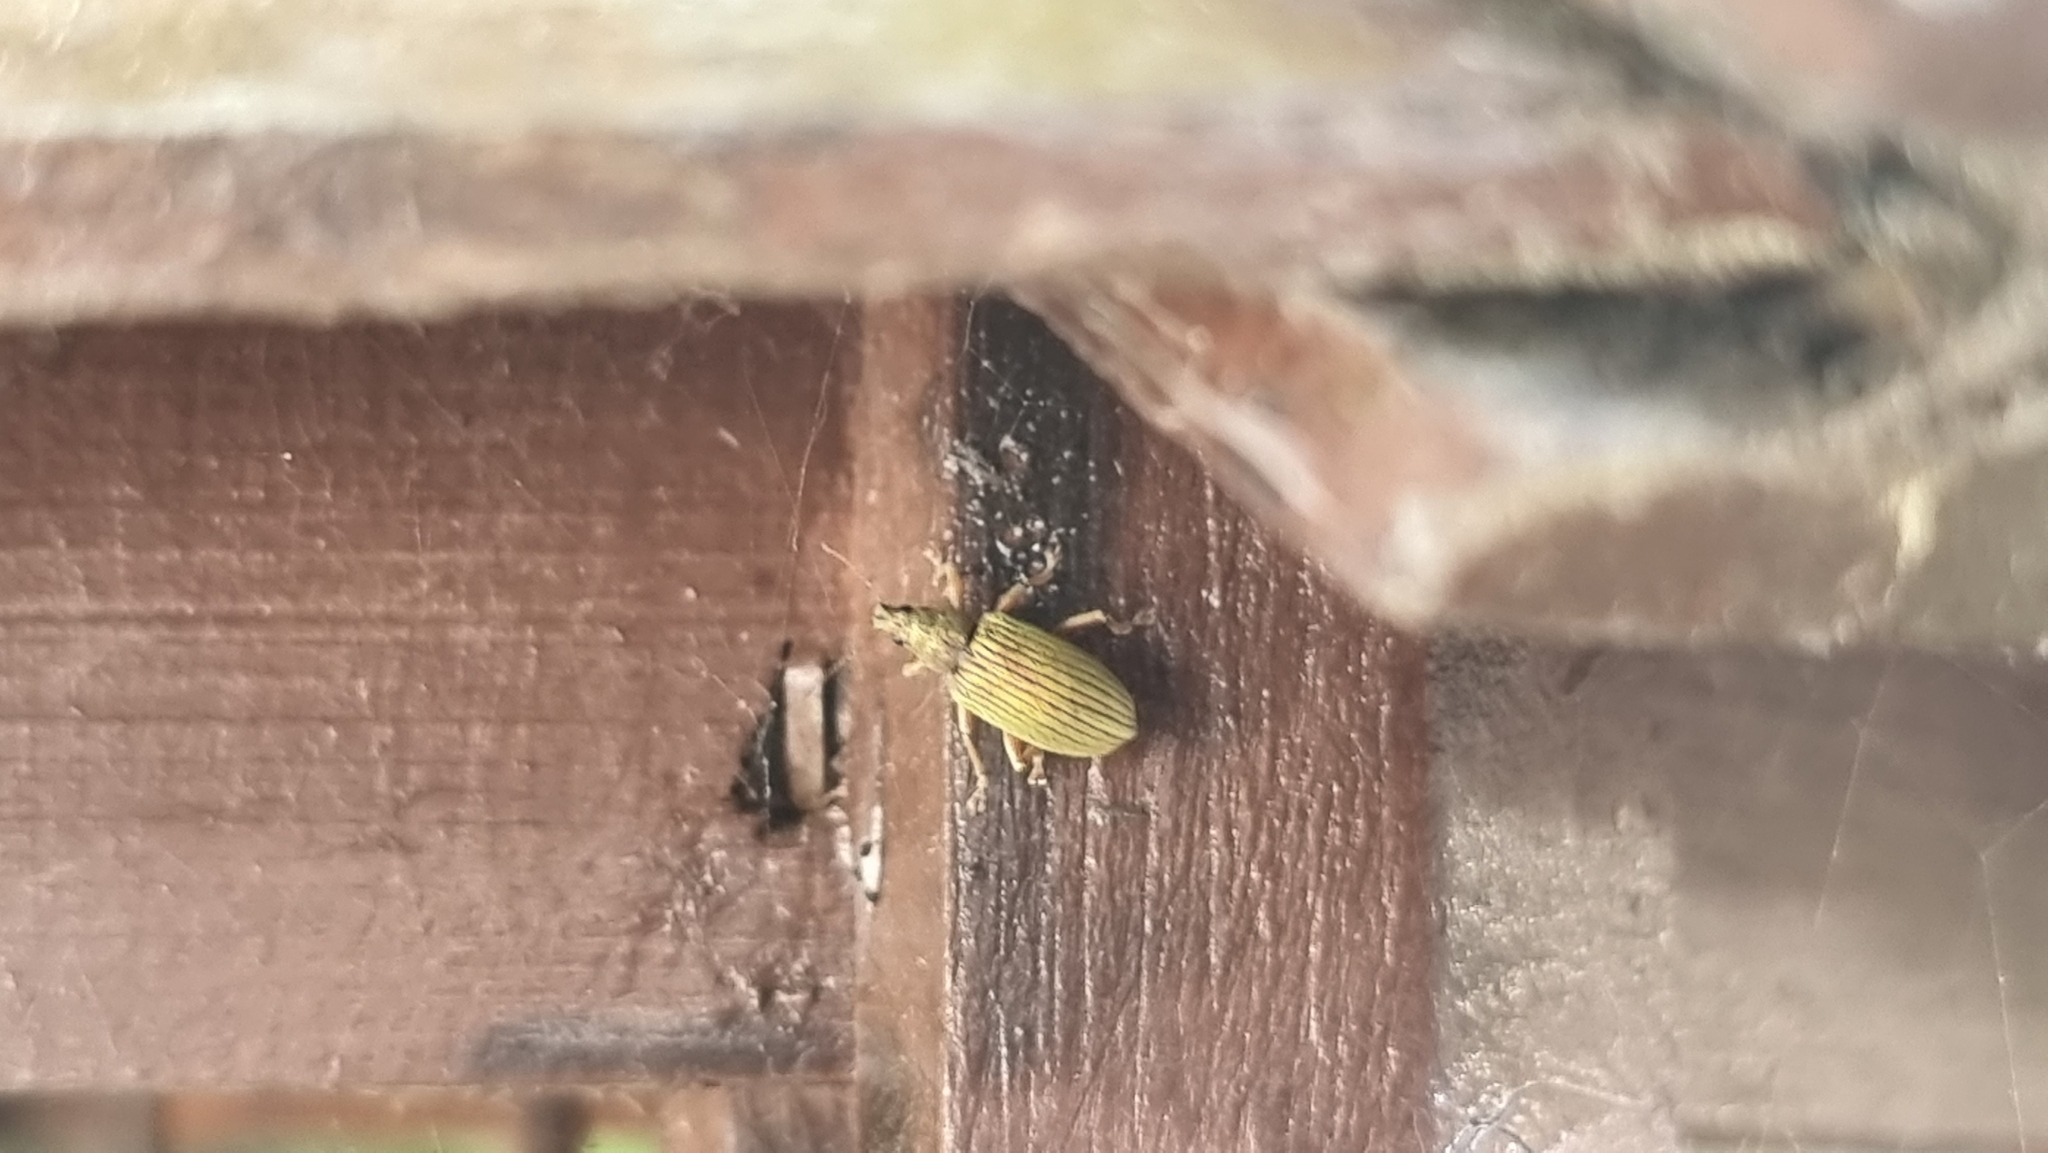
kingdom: Animalia
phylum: Arthropoda
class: Insecta
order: Coleoptera
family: Curculionidae
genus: Polydrusus
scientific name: Polydrusus formosus
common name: Weevil
